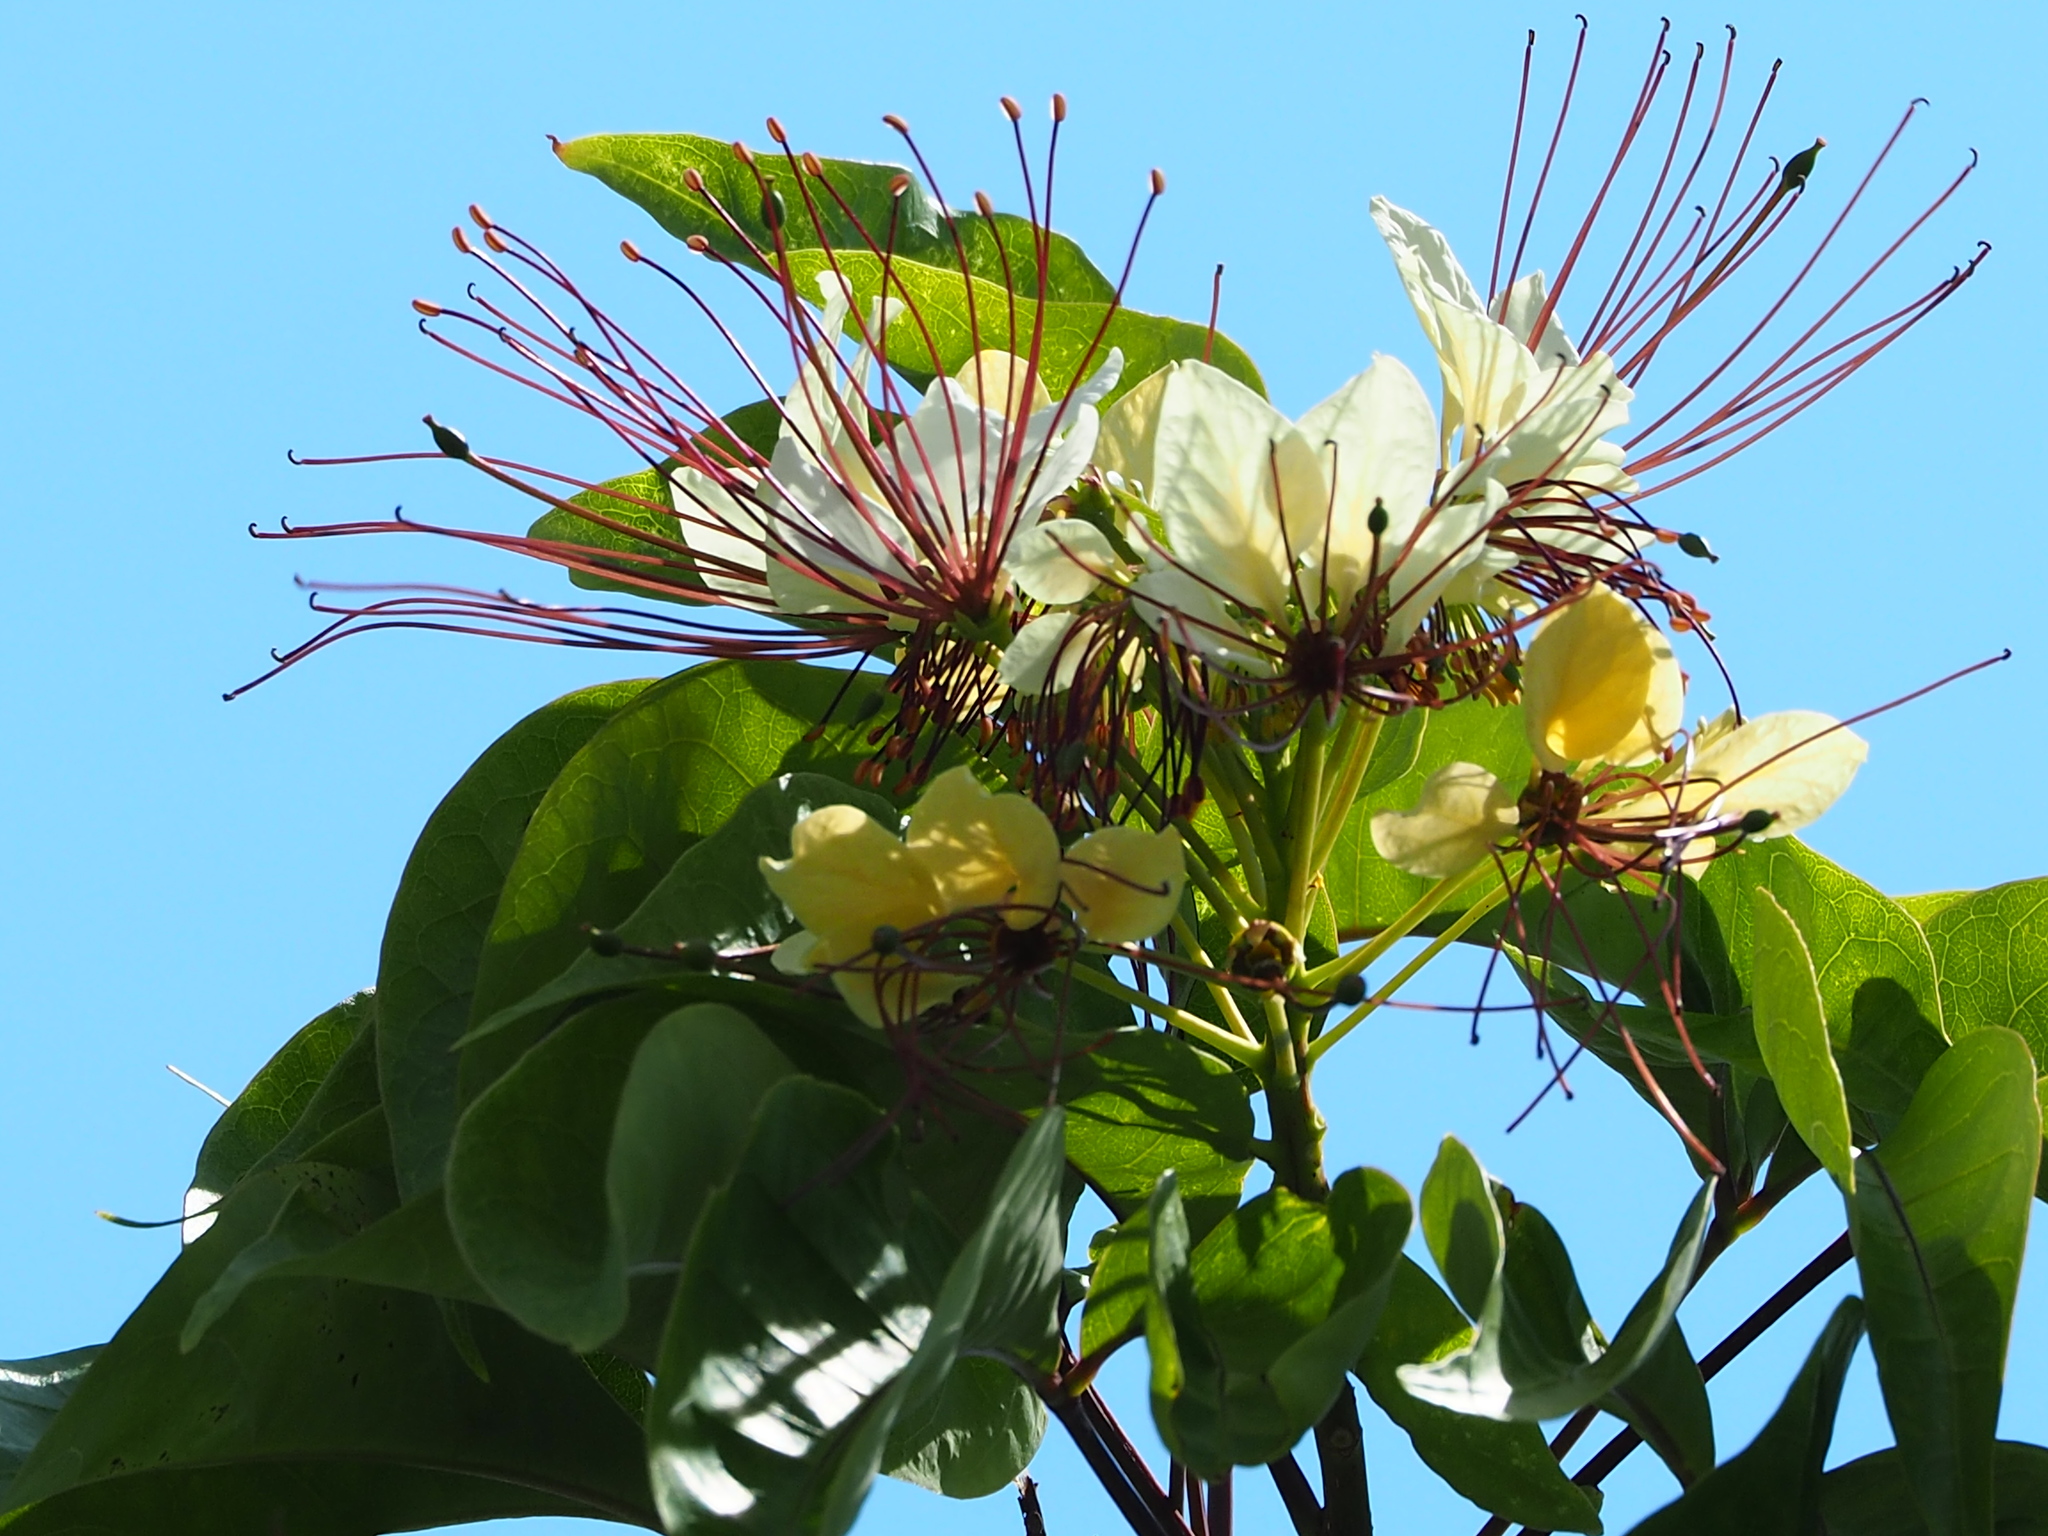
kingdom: Plantae
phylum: Tracheophyta
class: Magnoliopsida
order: Brassicales
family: Capparaceae
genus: Crateva
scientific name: Crateva formosensis
